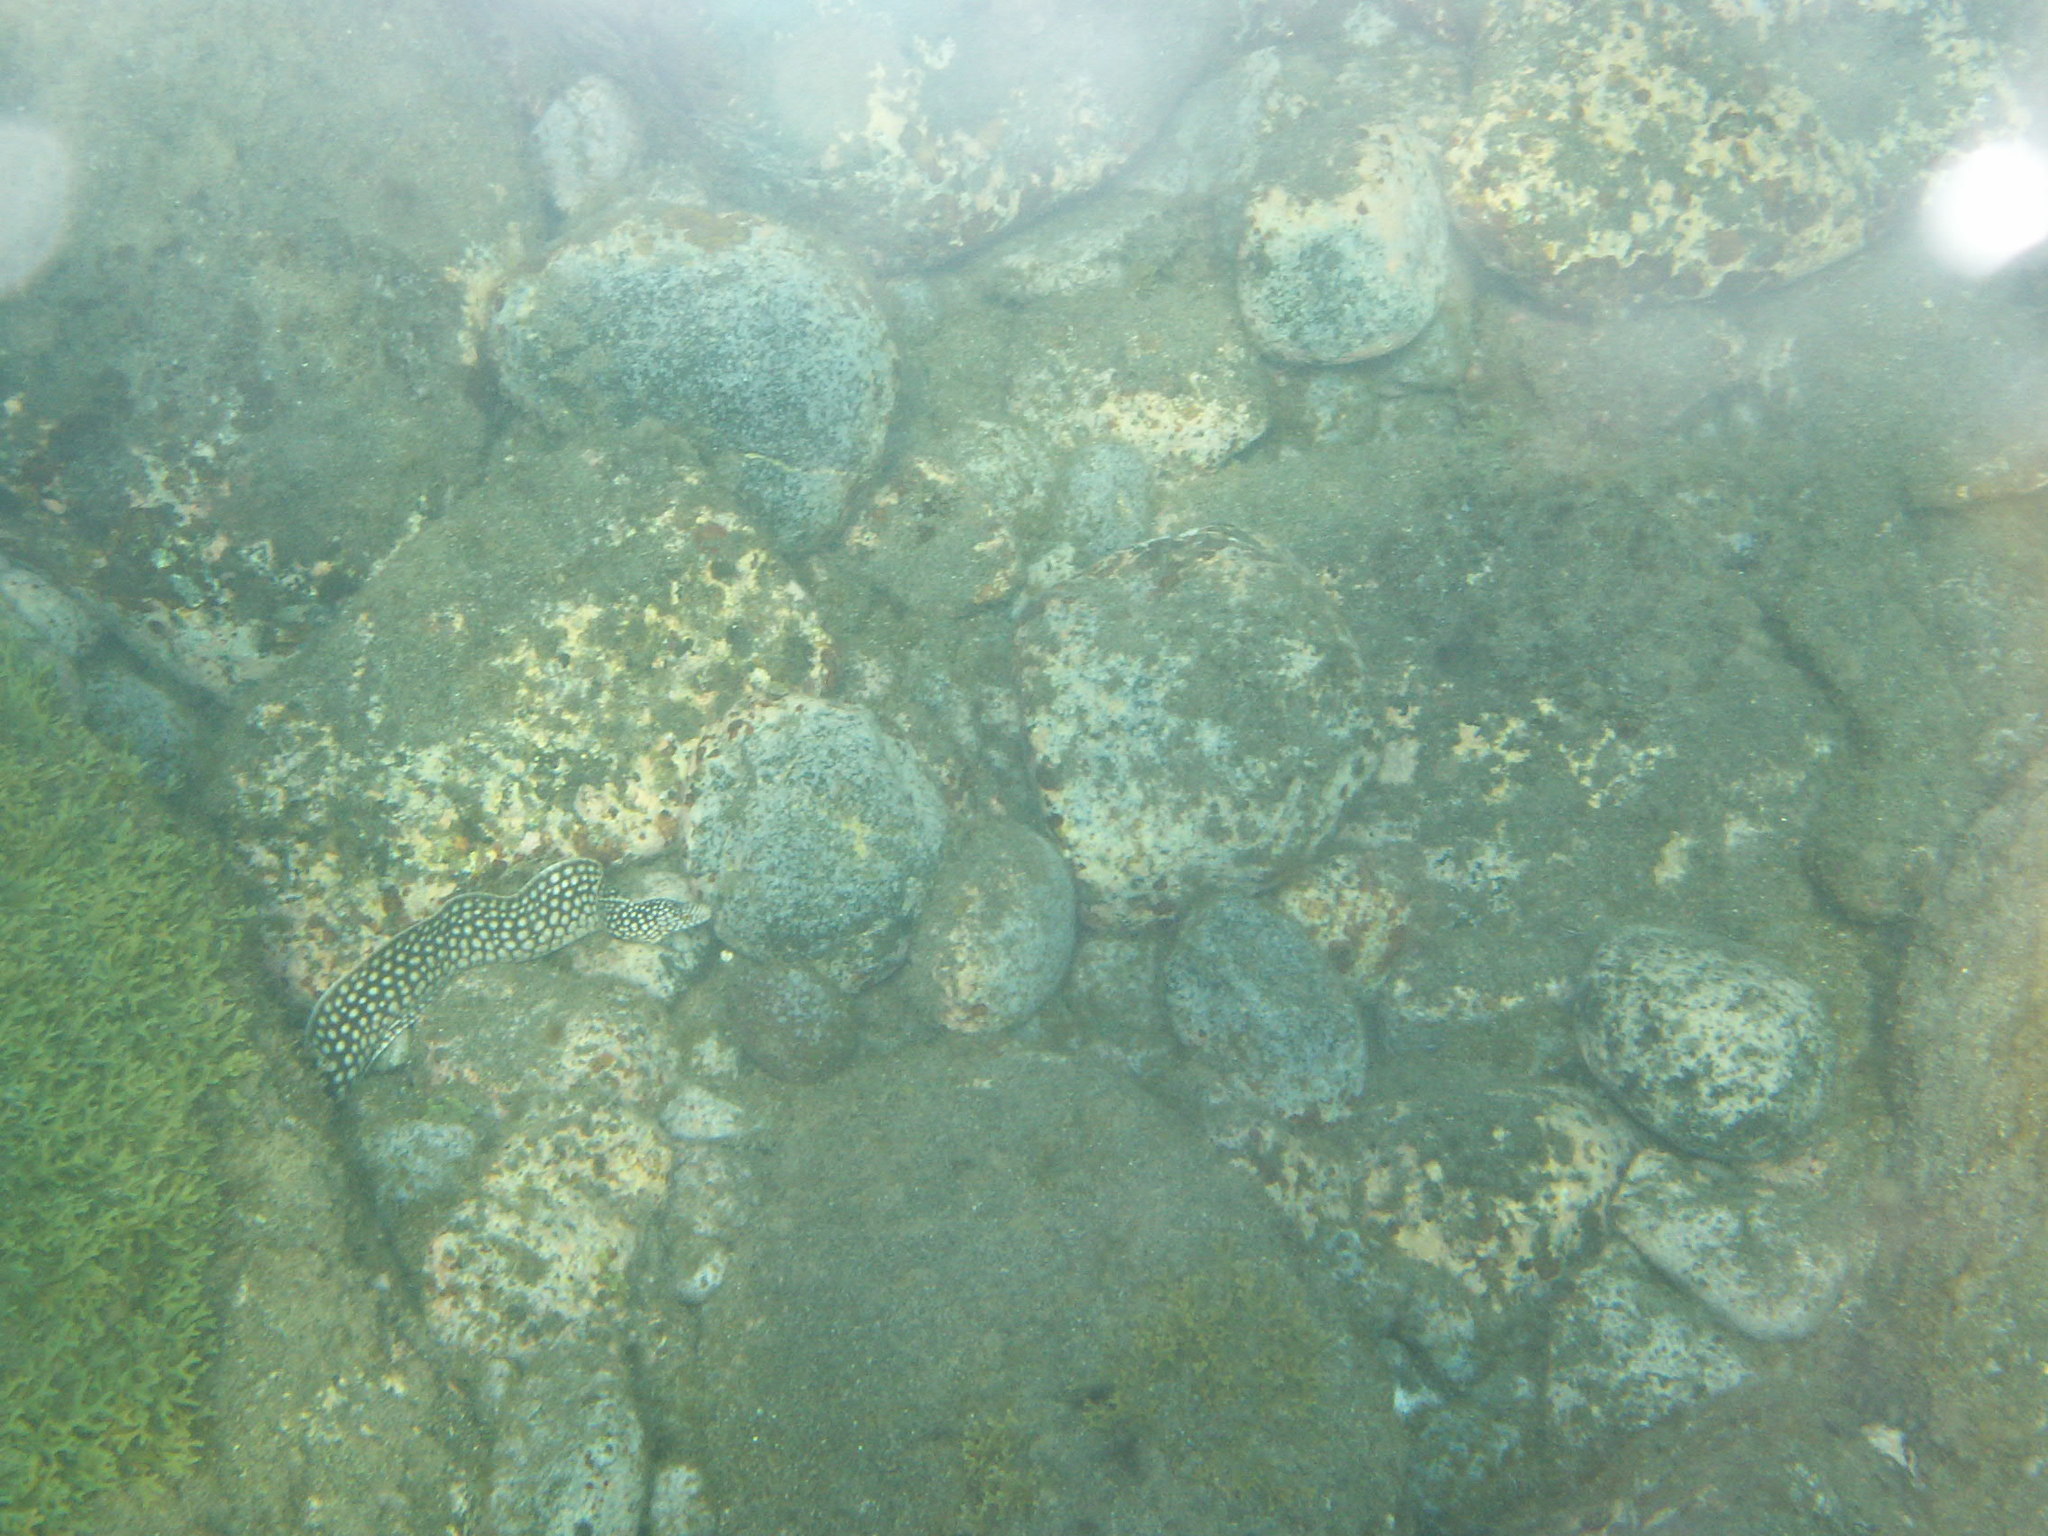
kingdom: Animalia
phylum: Chordata
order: Anguilliformes
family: Muraenidae
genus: Muraena
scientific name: Muraena melanotis
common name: Honeycomb moray
